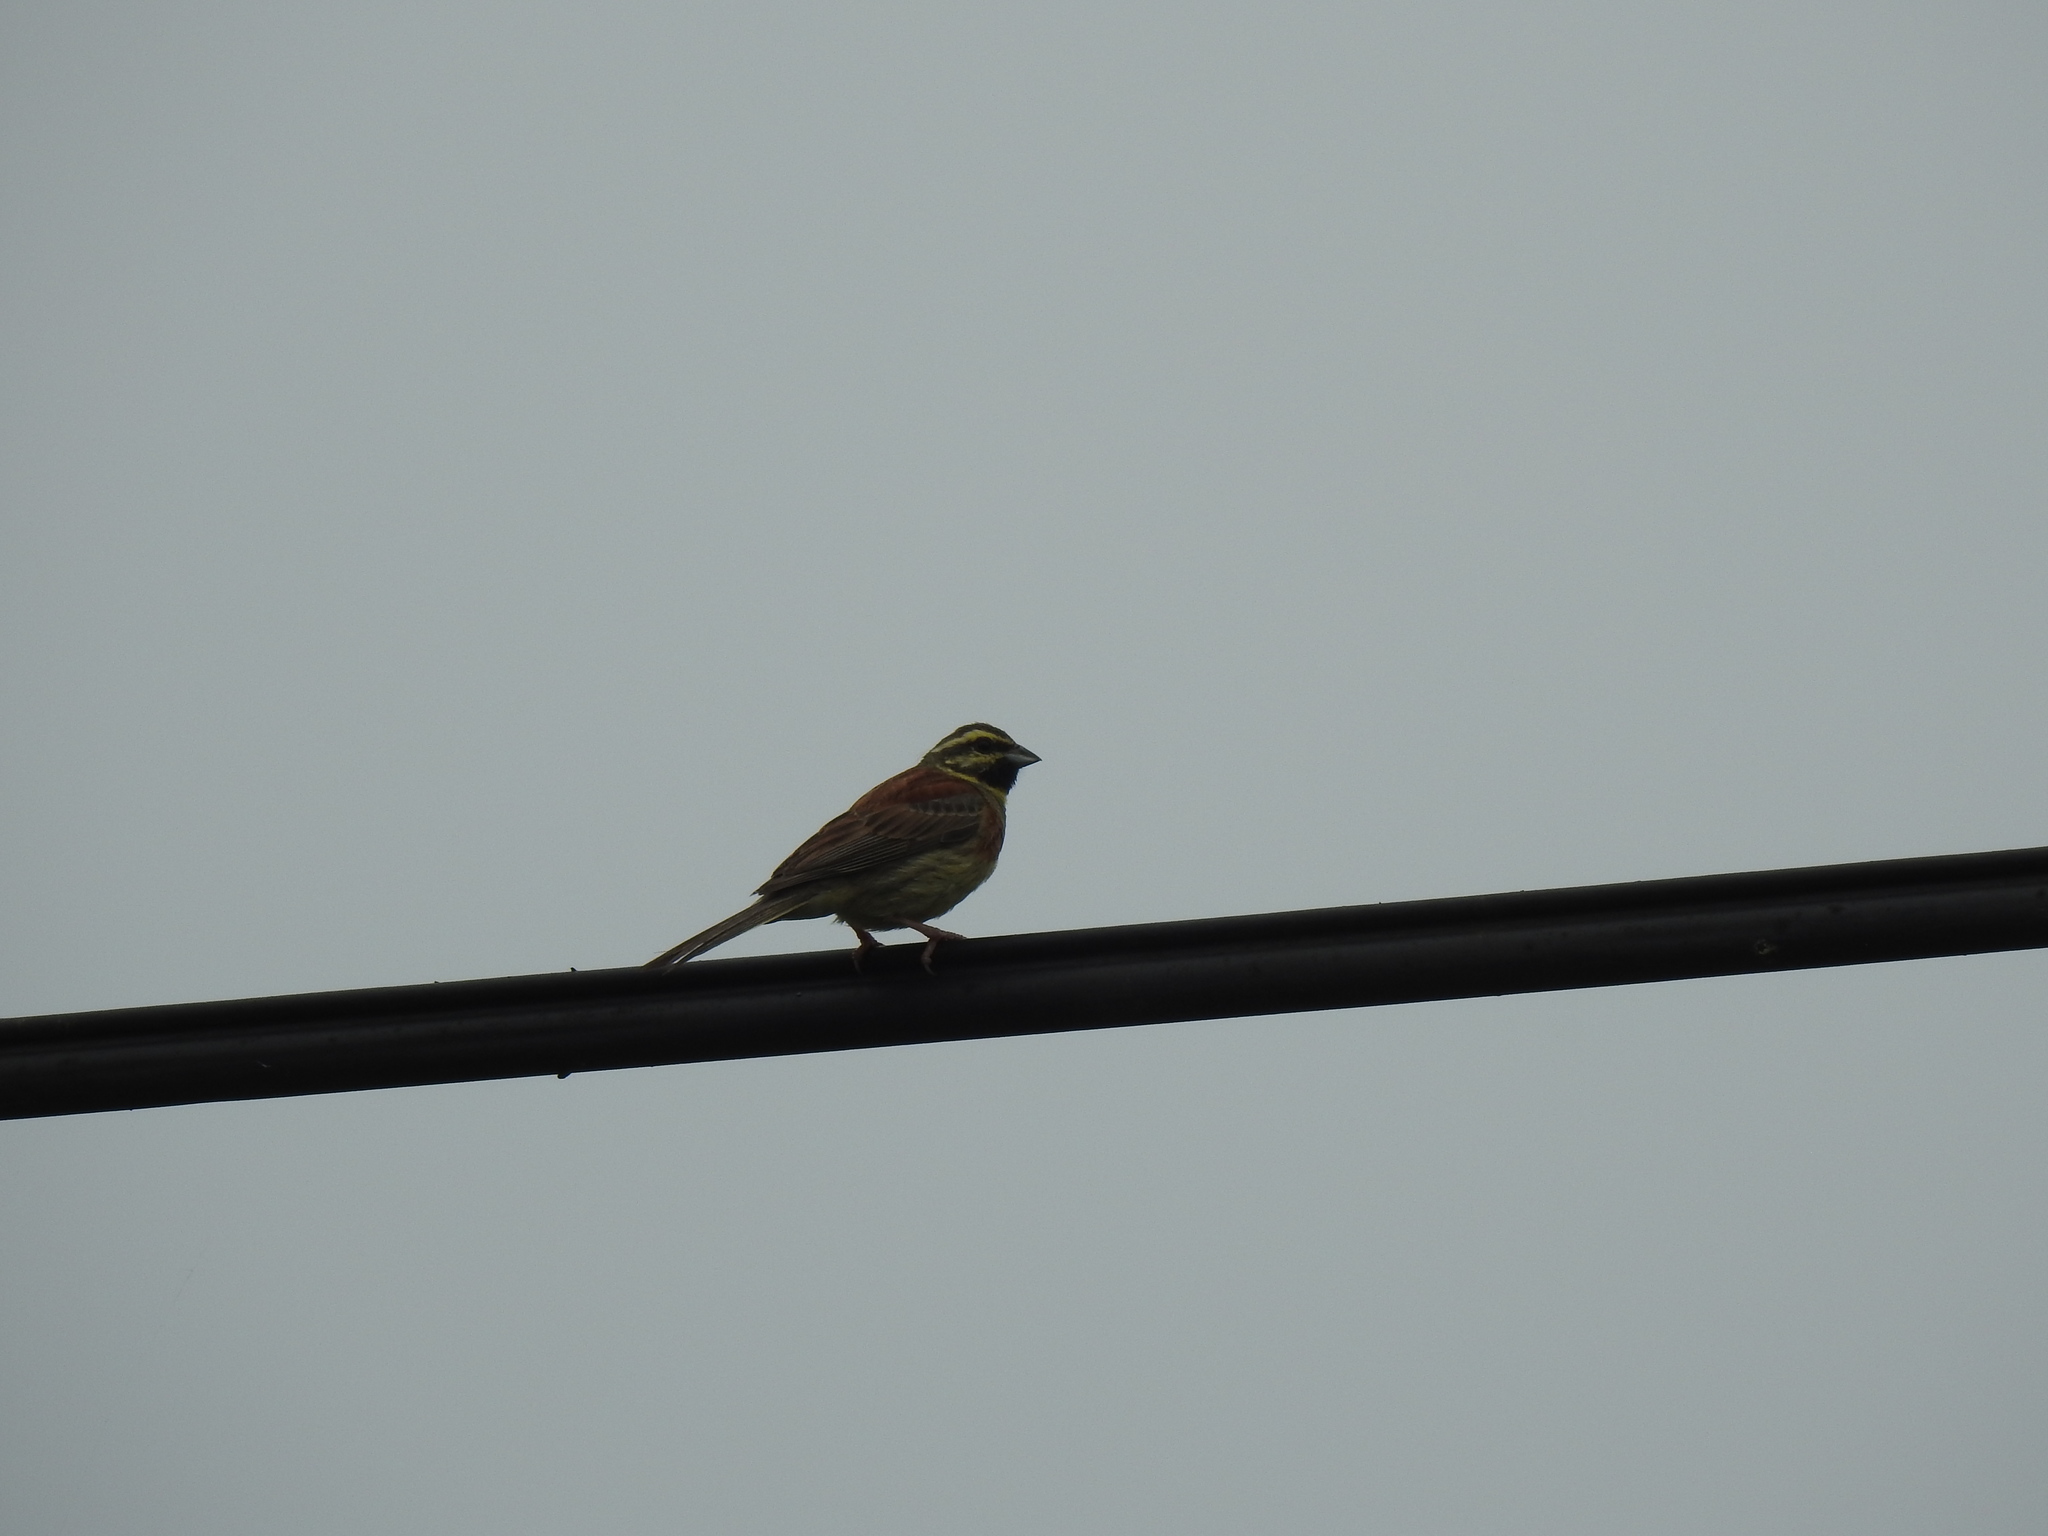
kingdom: Animalia
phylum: Chordata
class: Aves
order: Passeriformes
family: Emberizidae
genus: Emberiza
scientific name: Emberiza cirlus
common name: Cirl bunting
